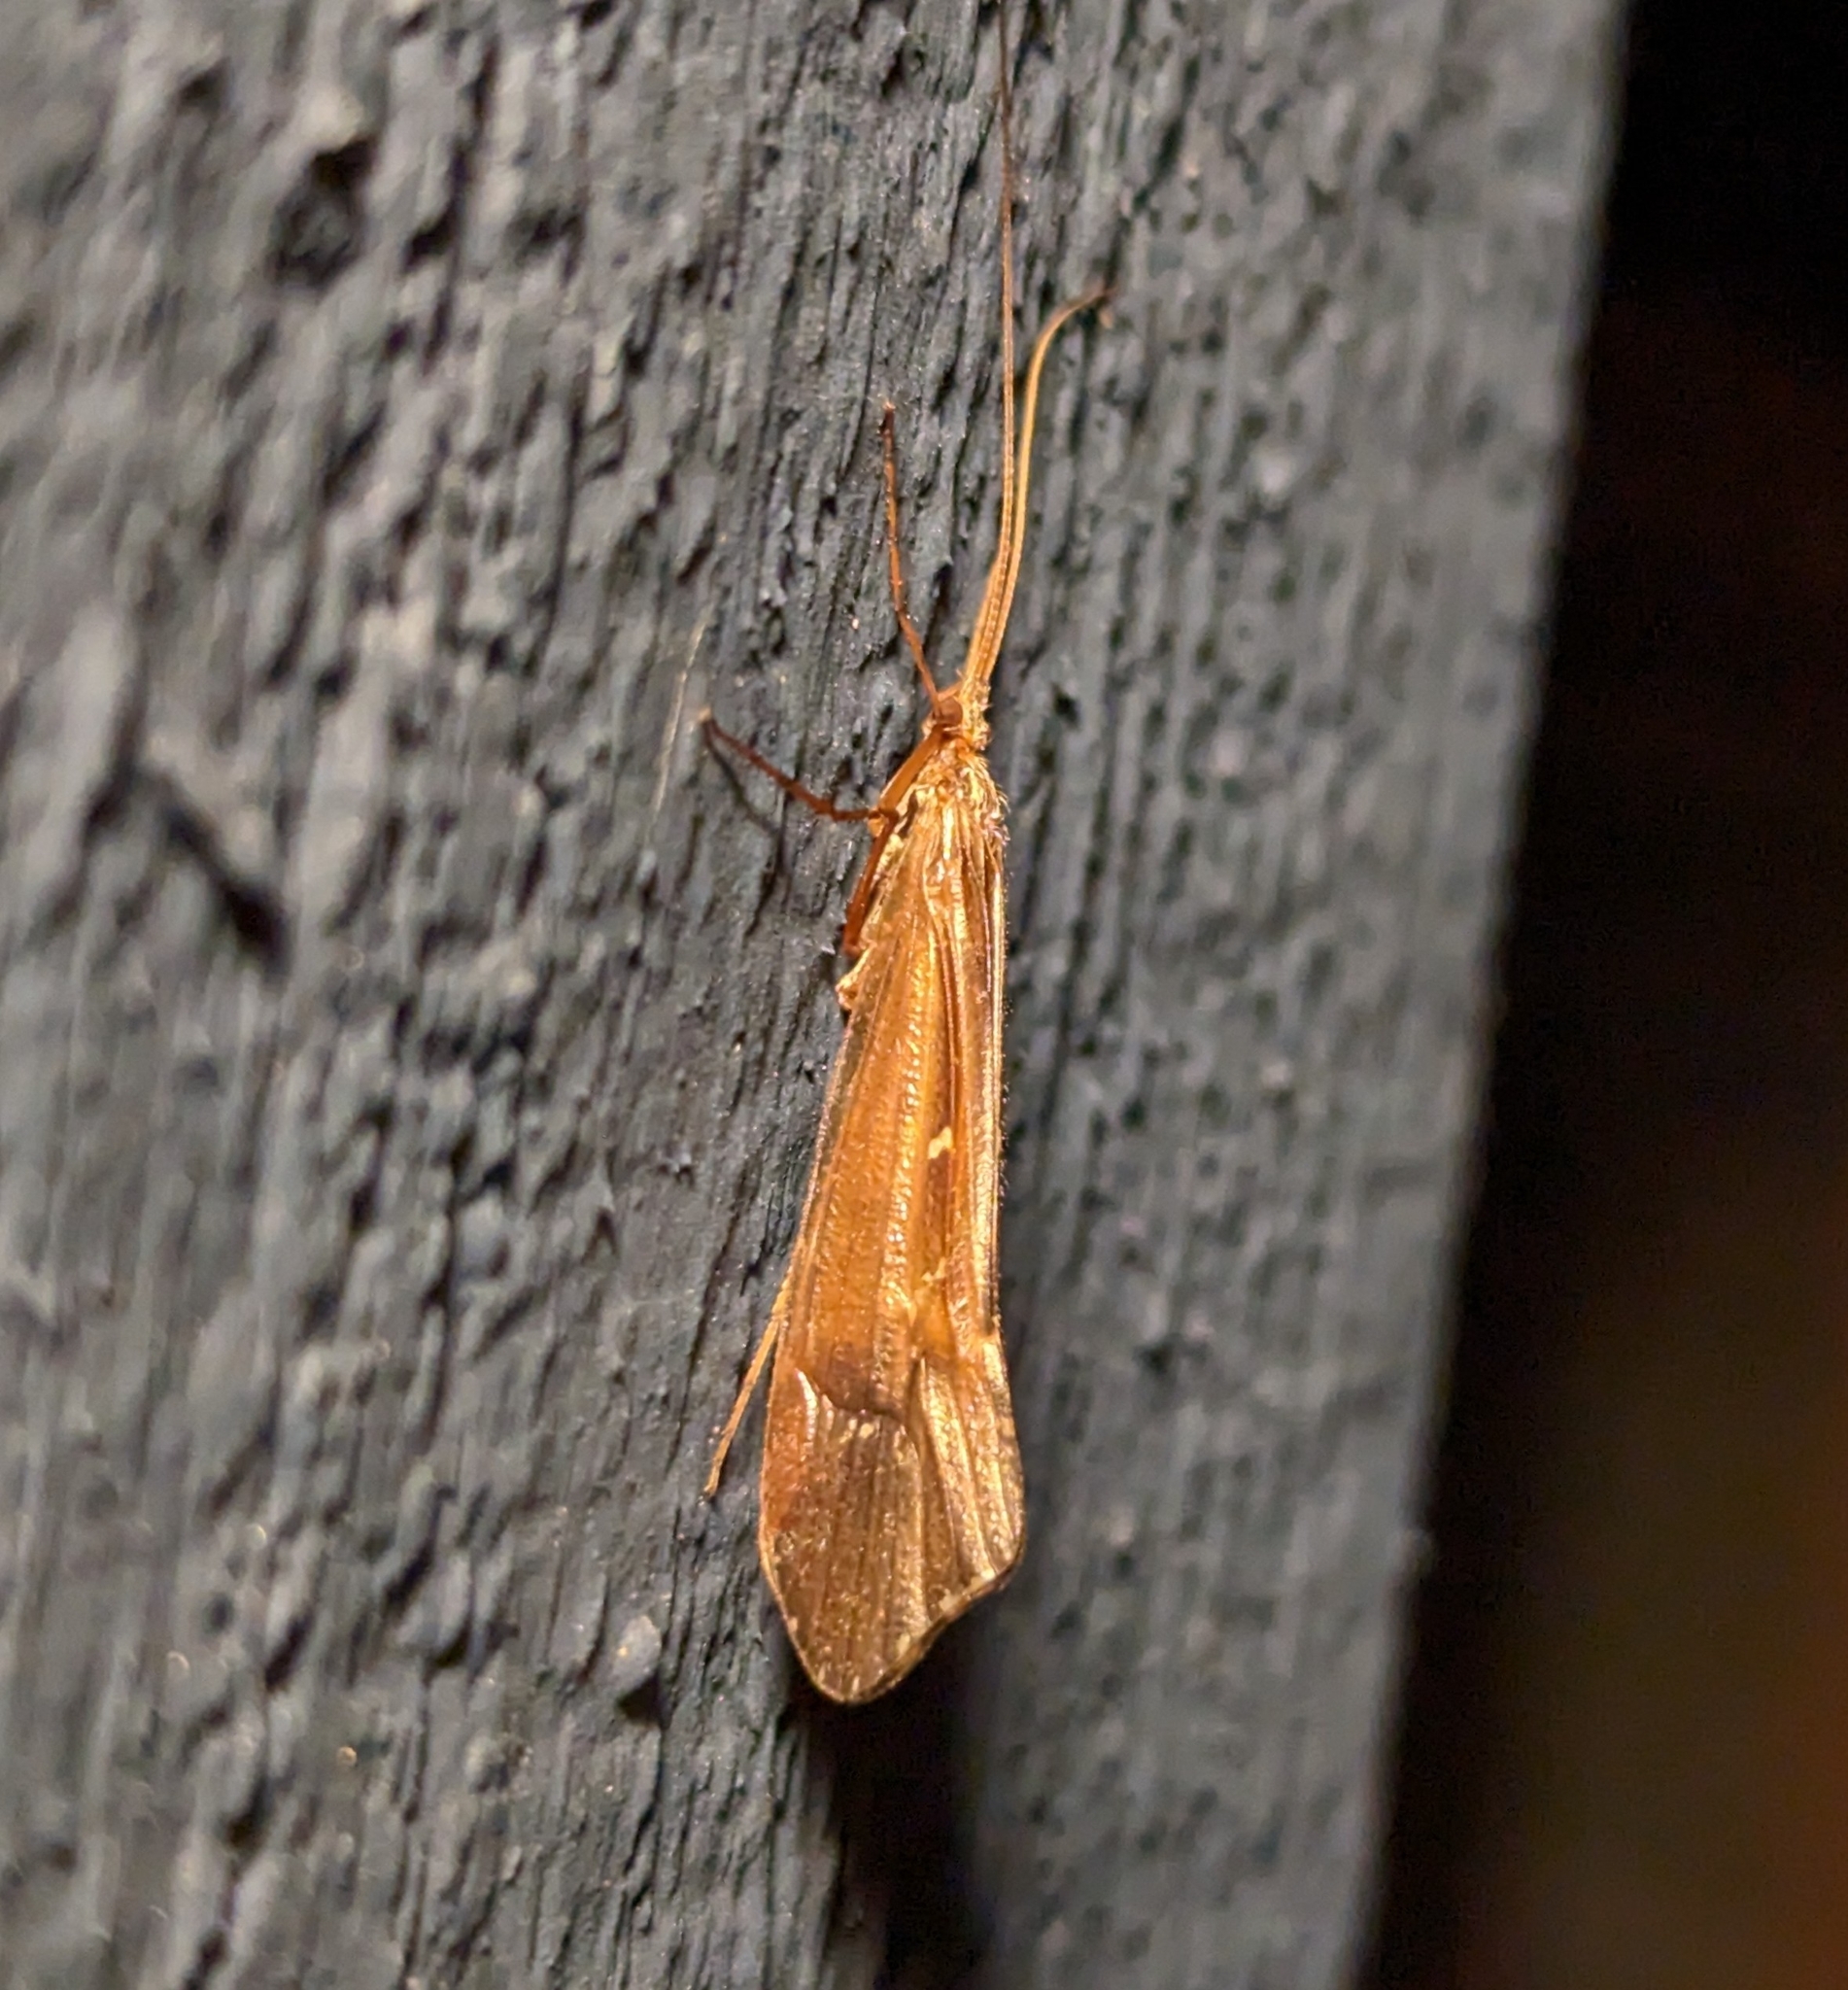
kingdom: Animalia
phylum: Arthropoda
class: Insecta
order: Trichoptera
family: Limnephilidae
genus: Glyphopsyche
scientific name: Glyphopsyche irrorata
